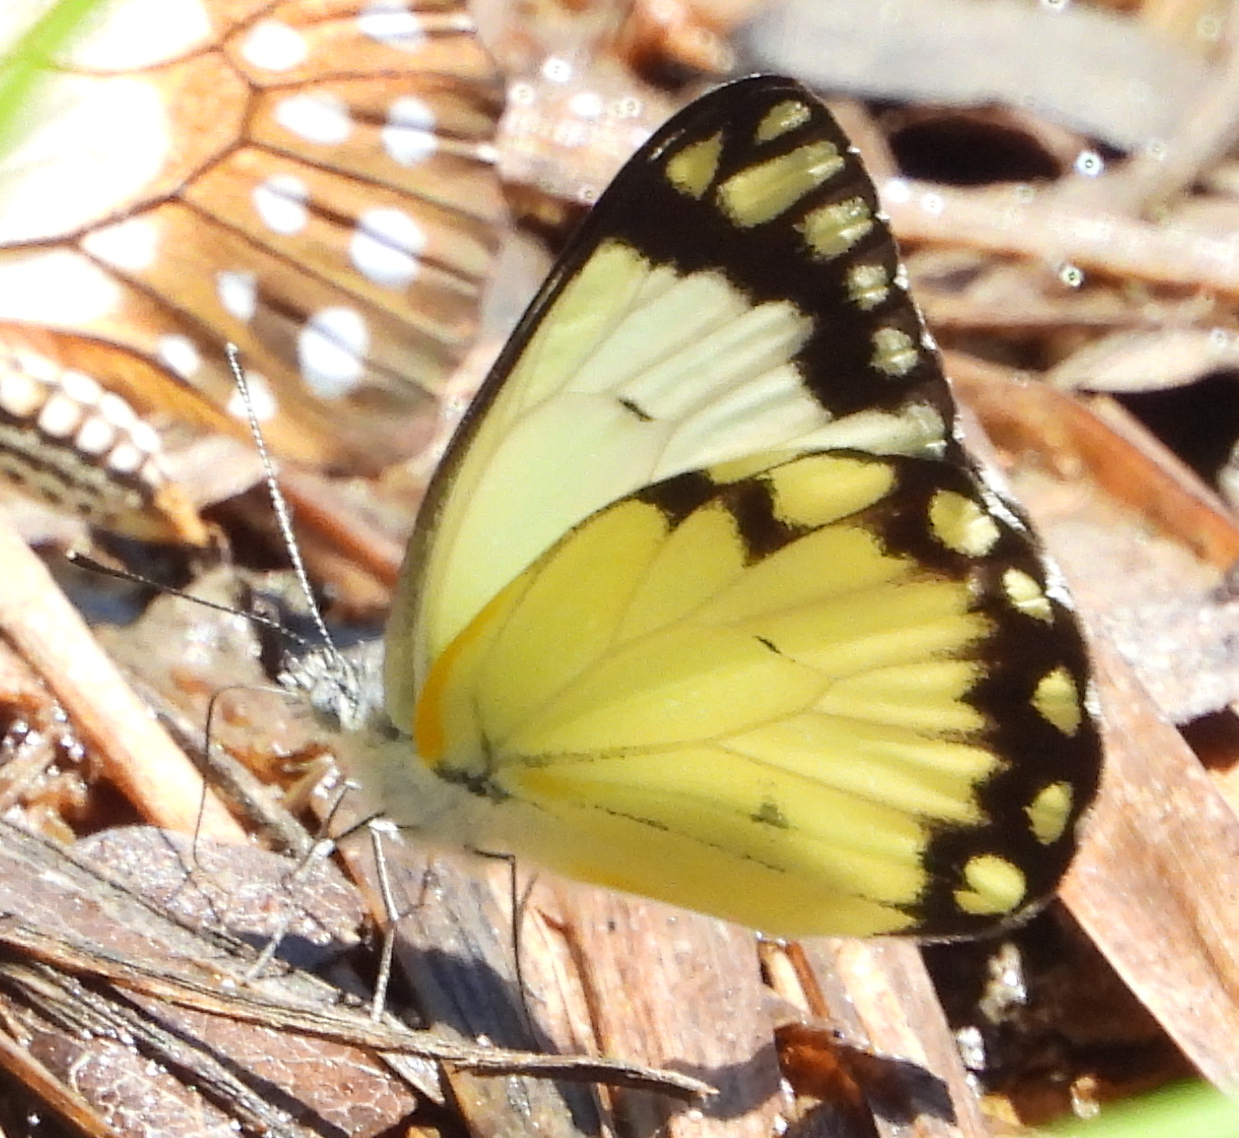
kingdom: Animalia
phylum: Arthropoda
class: Insecta
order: Lepidoptera
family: Pieridae
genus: Belenois
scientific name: Belenois creona
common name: African caper white
